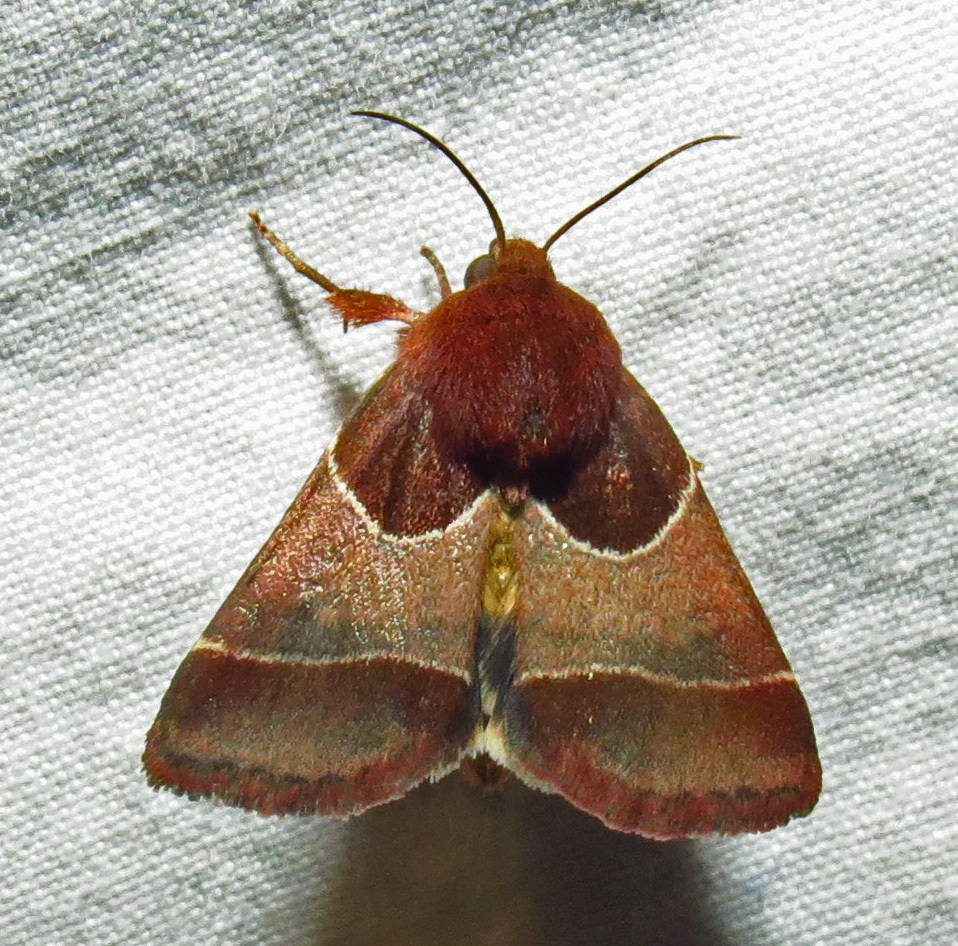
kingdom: Animalia
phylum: Arthropoda
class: Insecta
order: Lepidoptera
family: Noctuidae
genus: Schinia
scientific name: Schinia arcigera
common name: Arcigera flower moth
